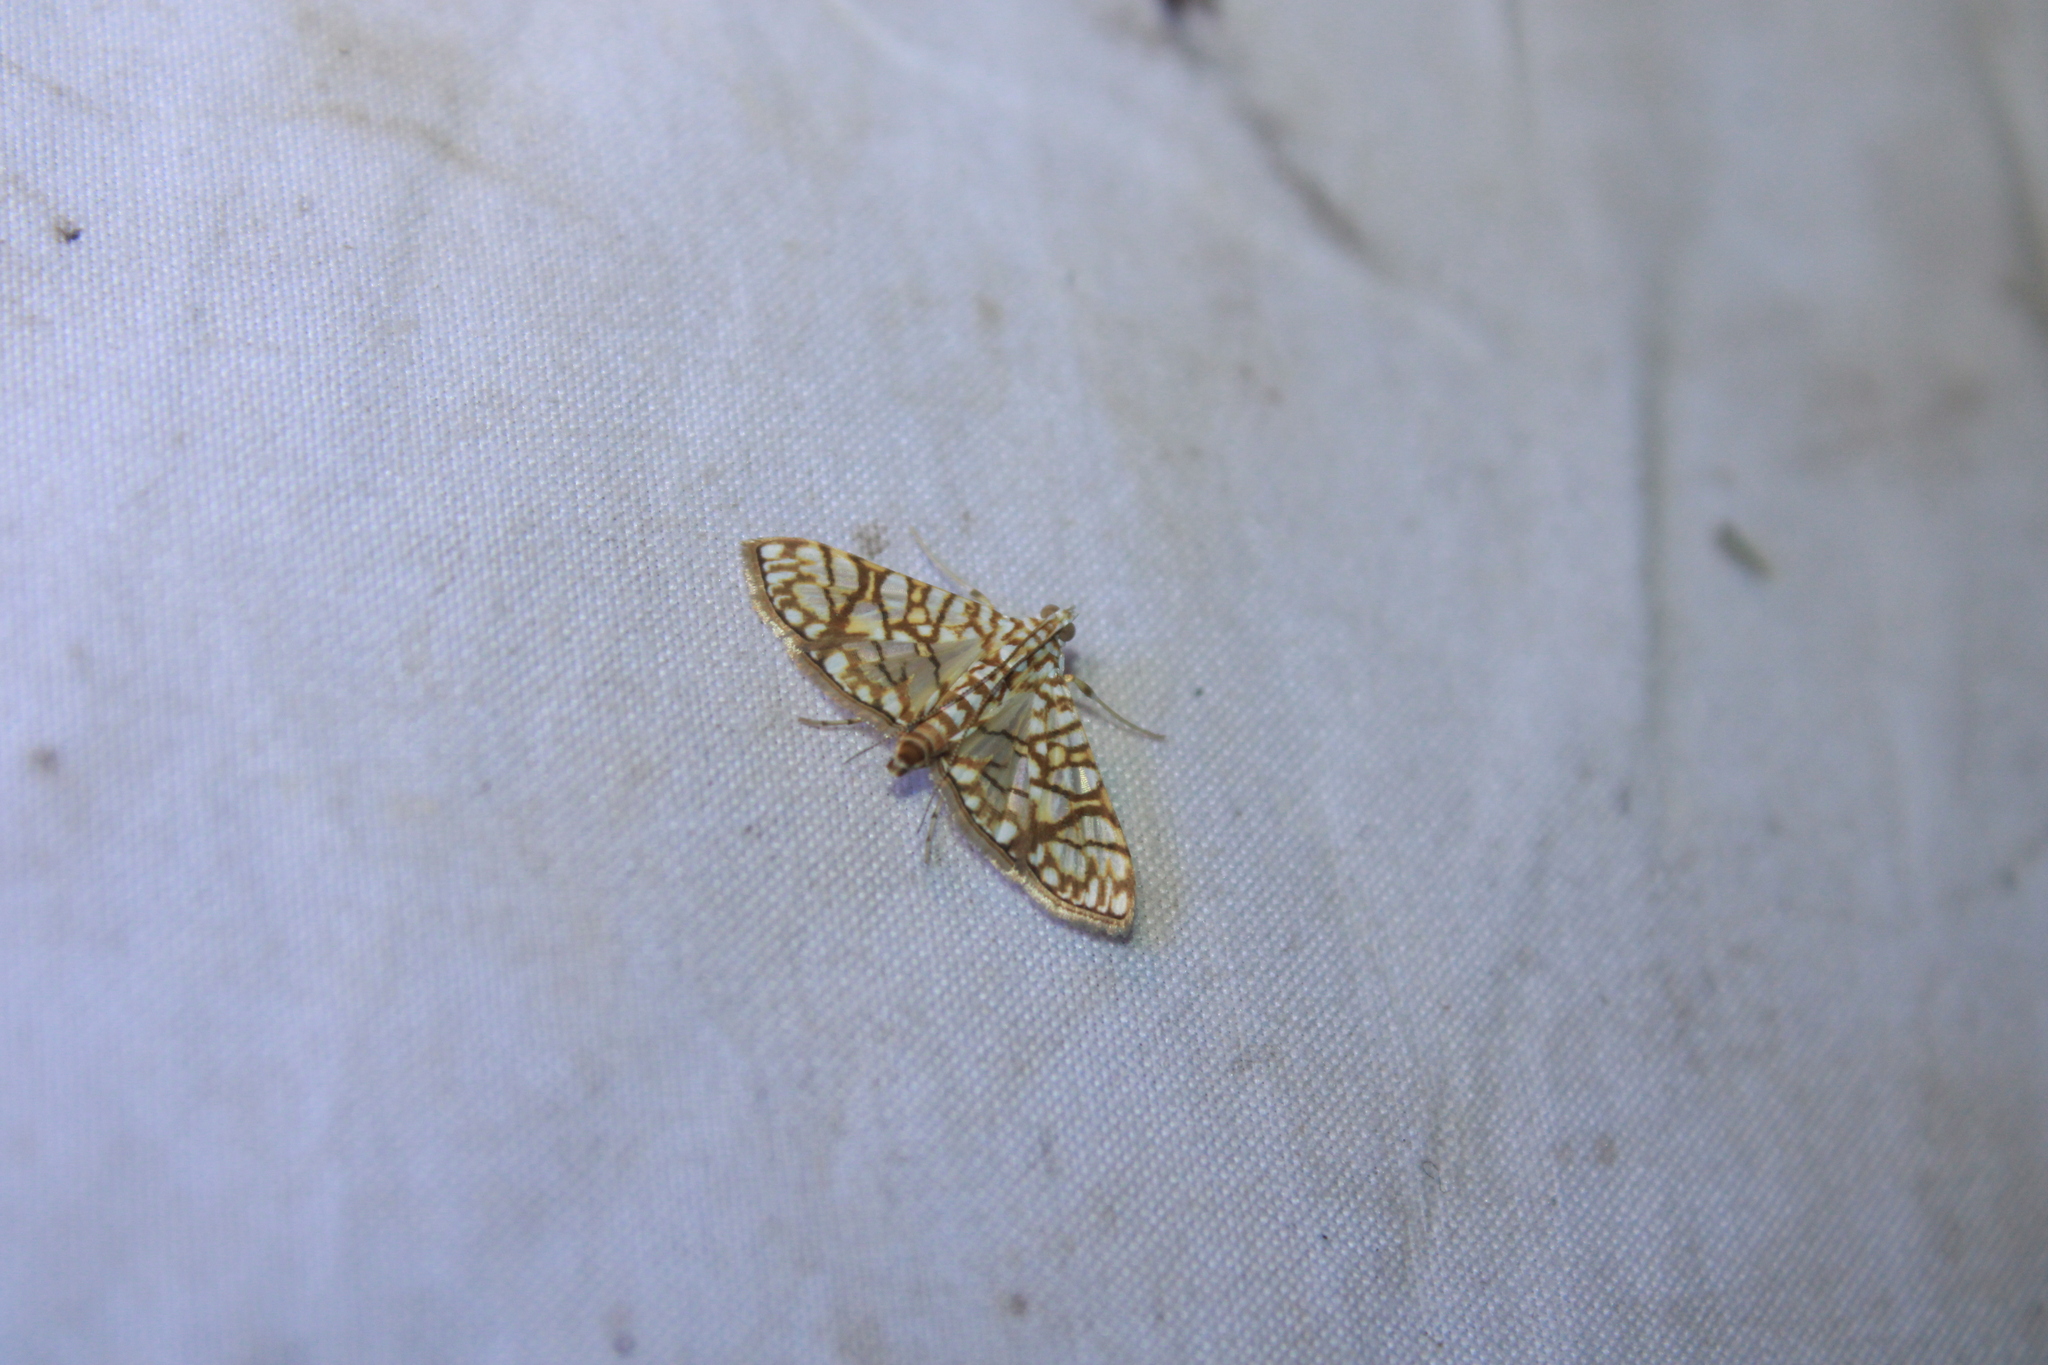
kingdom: Animalia
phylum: Arthropoda
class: Insecta
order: Lepidoptera
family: Crambidae
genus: Synclera
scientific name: Synclera traducalis
